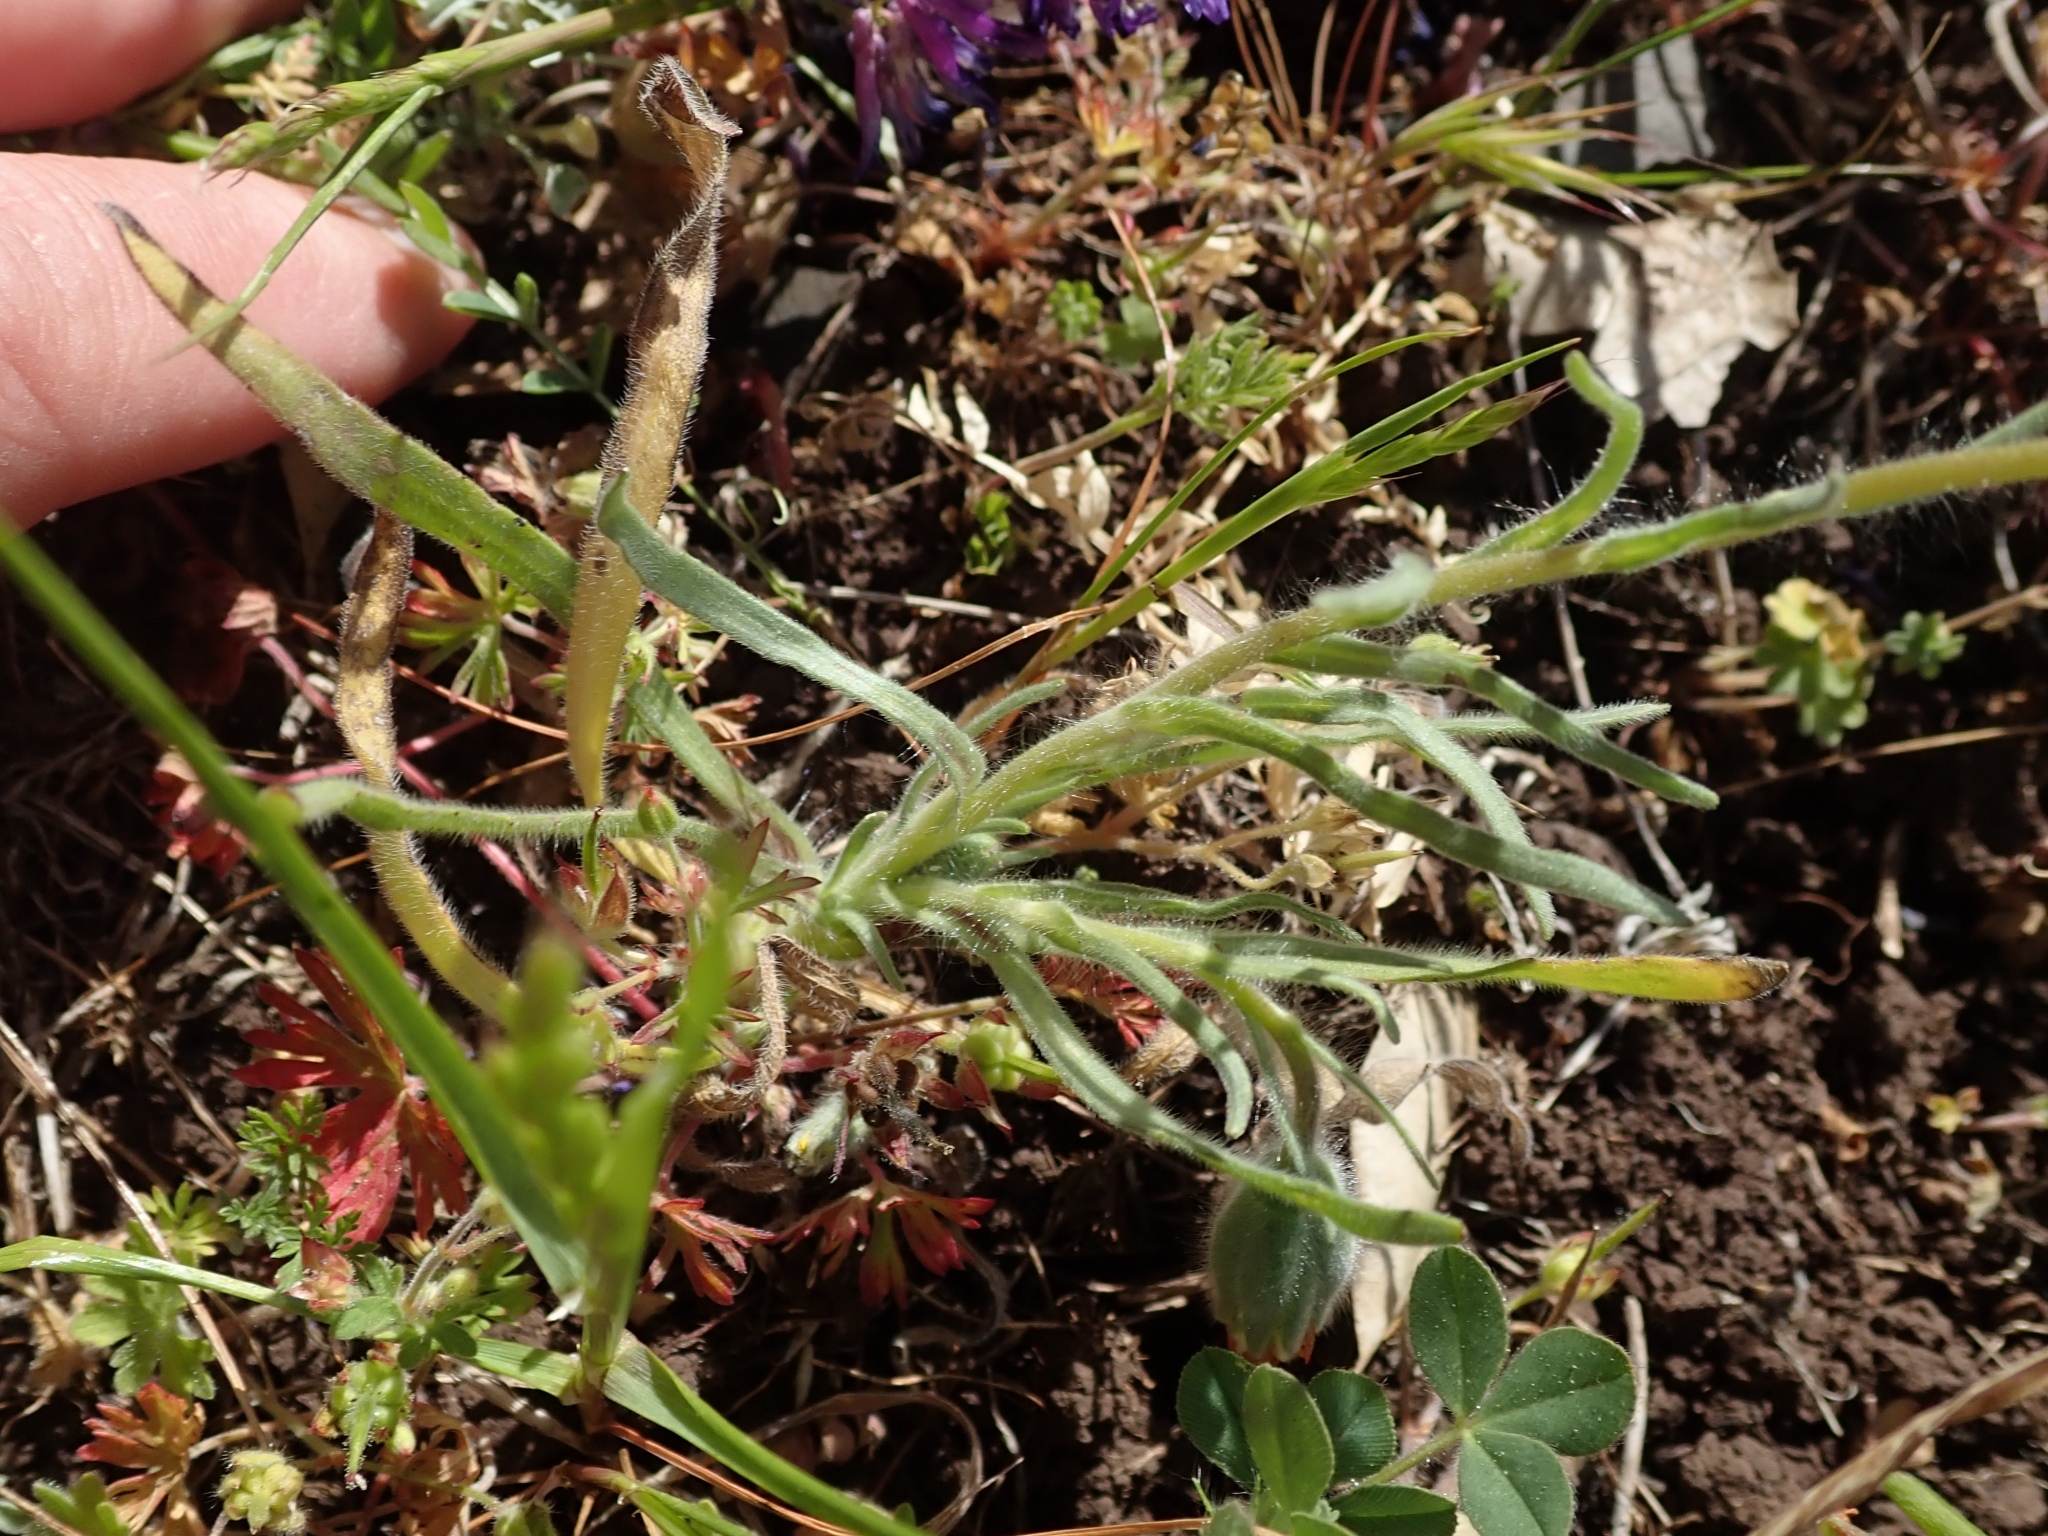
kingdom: Plantae
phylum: Tracheophyta
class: Magnoliopsida
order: Asterales
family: Asteraceae
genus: Achyrachaena
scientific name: Achyrachaena mollis
